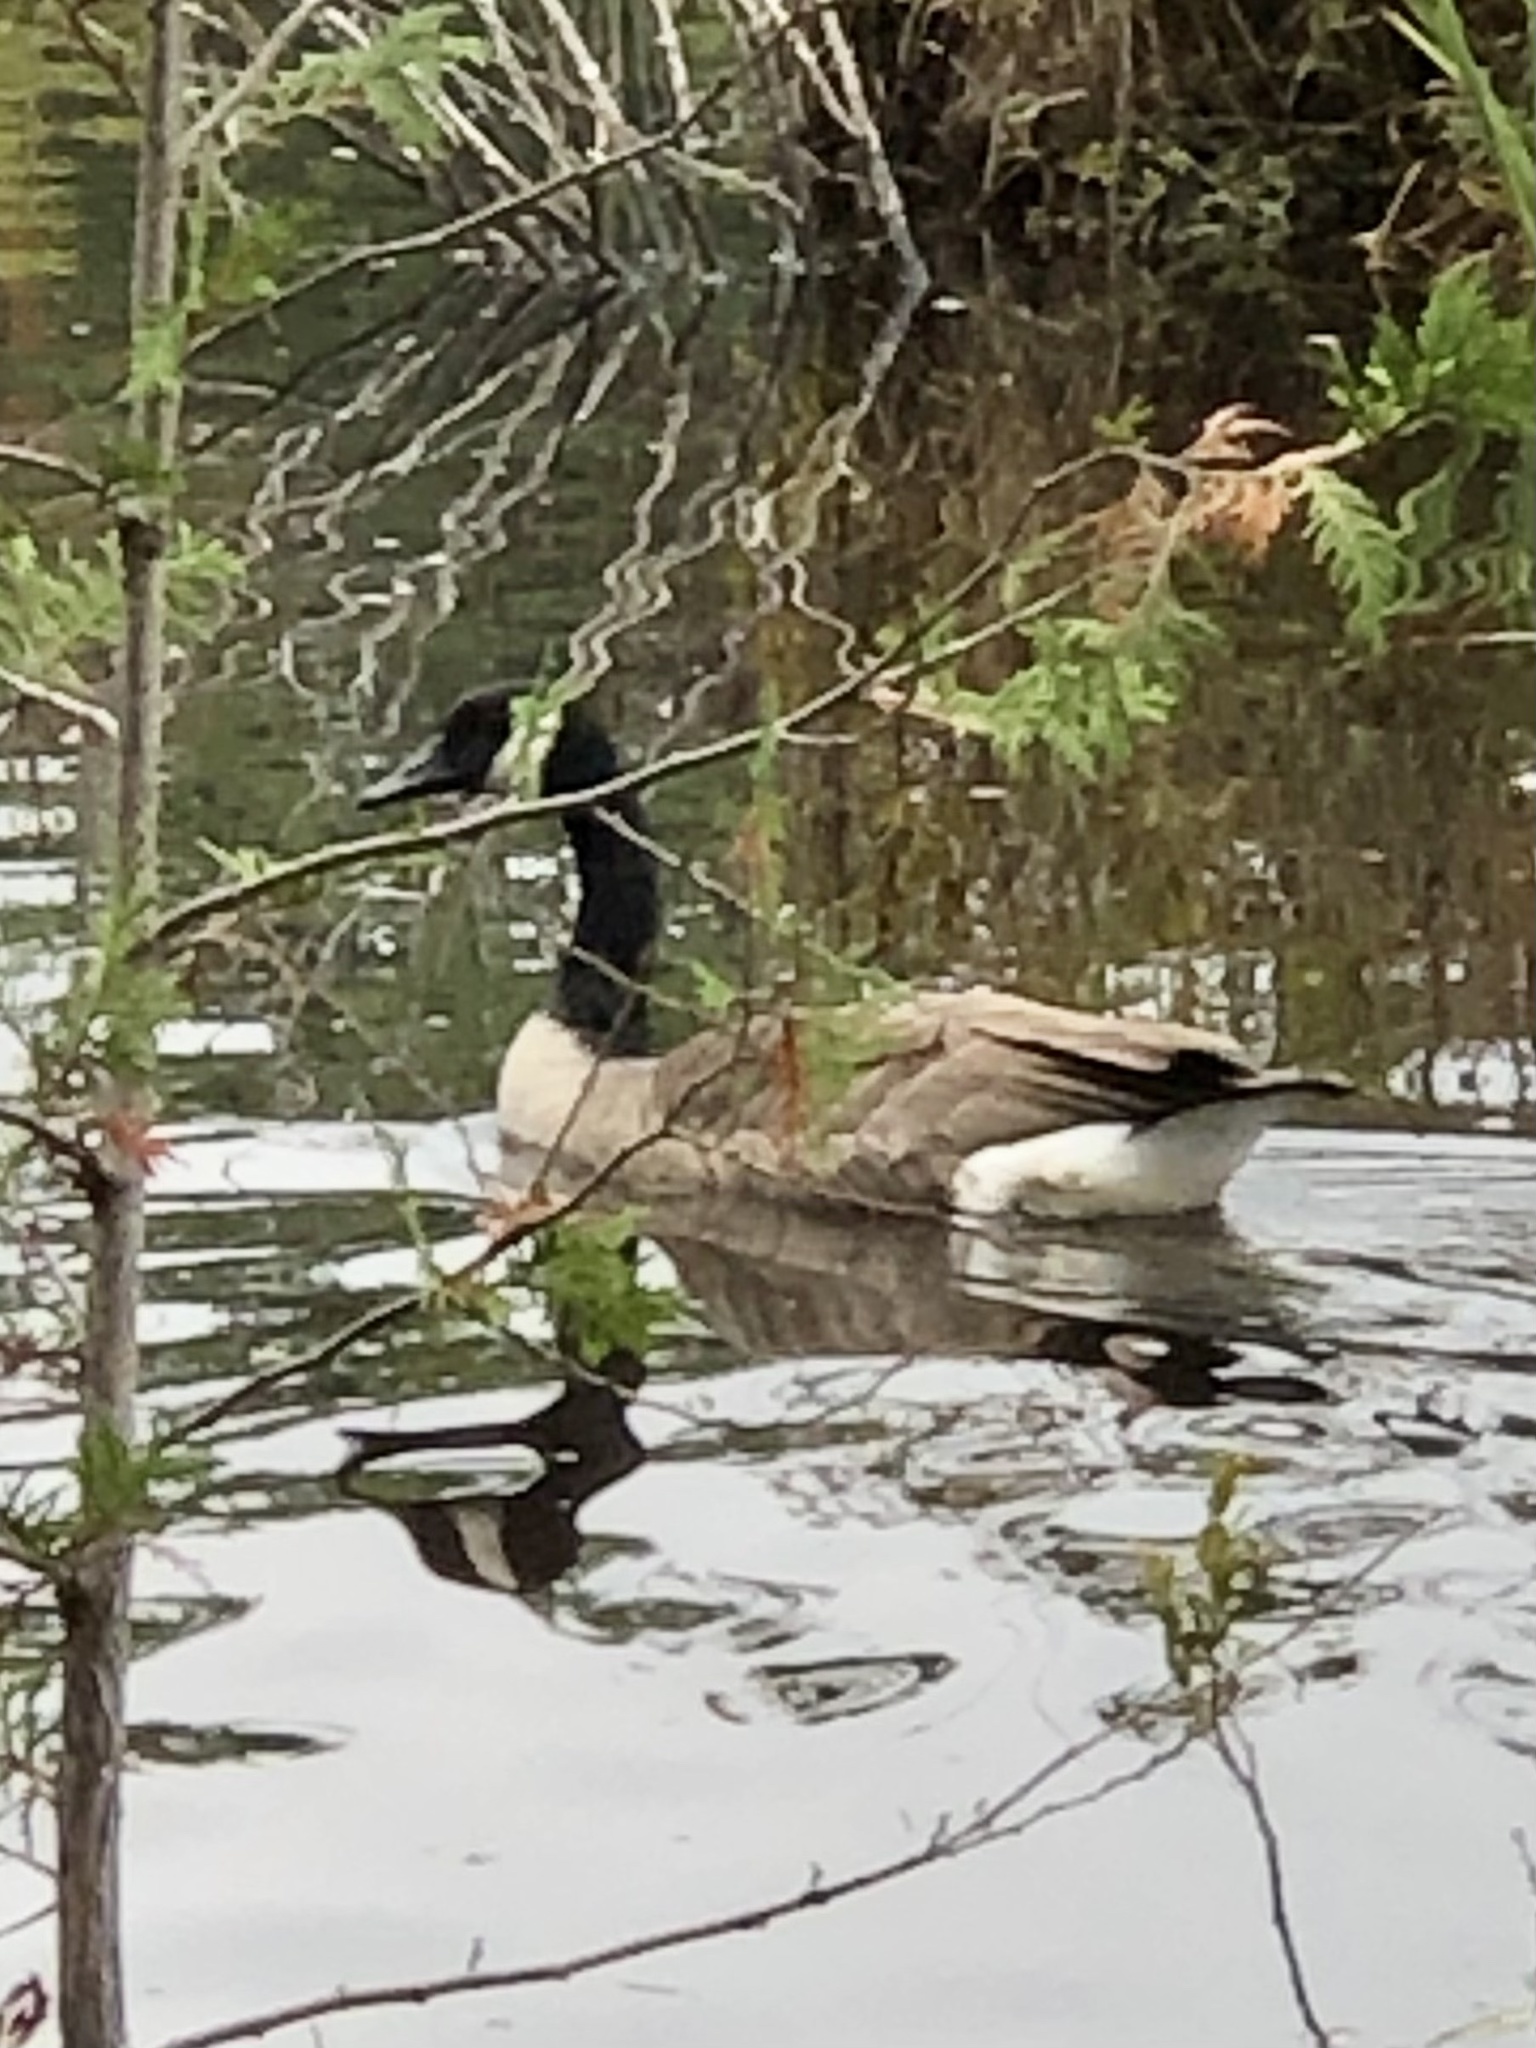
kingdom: Animalia
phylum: Chordata
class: Aves
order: Anseriformes
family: Anatidae
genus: Branta
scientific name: Branta canadensis
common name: Canada goose
